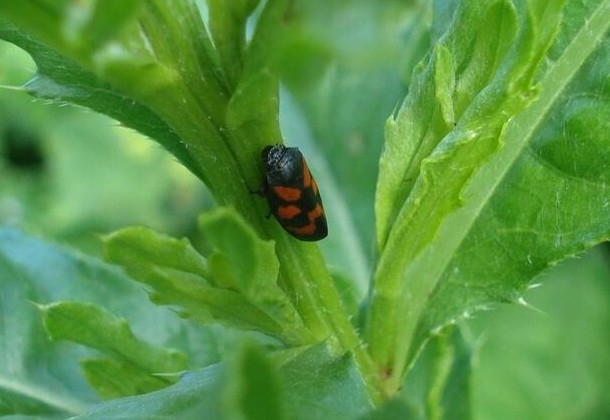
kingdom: Animalia
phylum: Arthropoda
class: Insecta
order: Hemiptera
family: Cercopidae
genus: Cercopis
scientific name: Cercopis vulnerata
